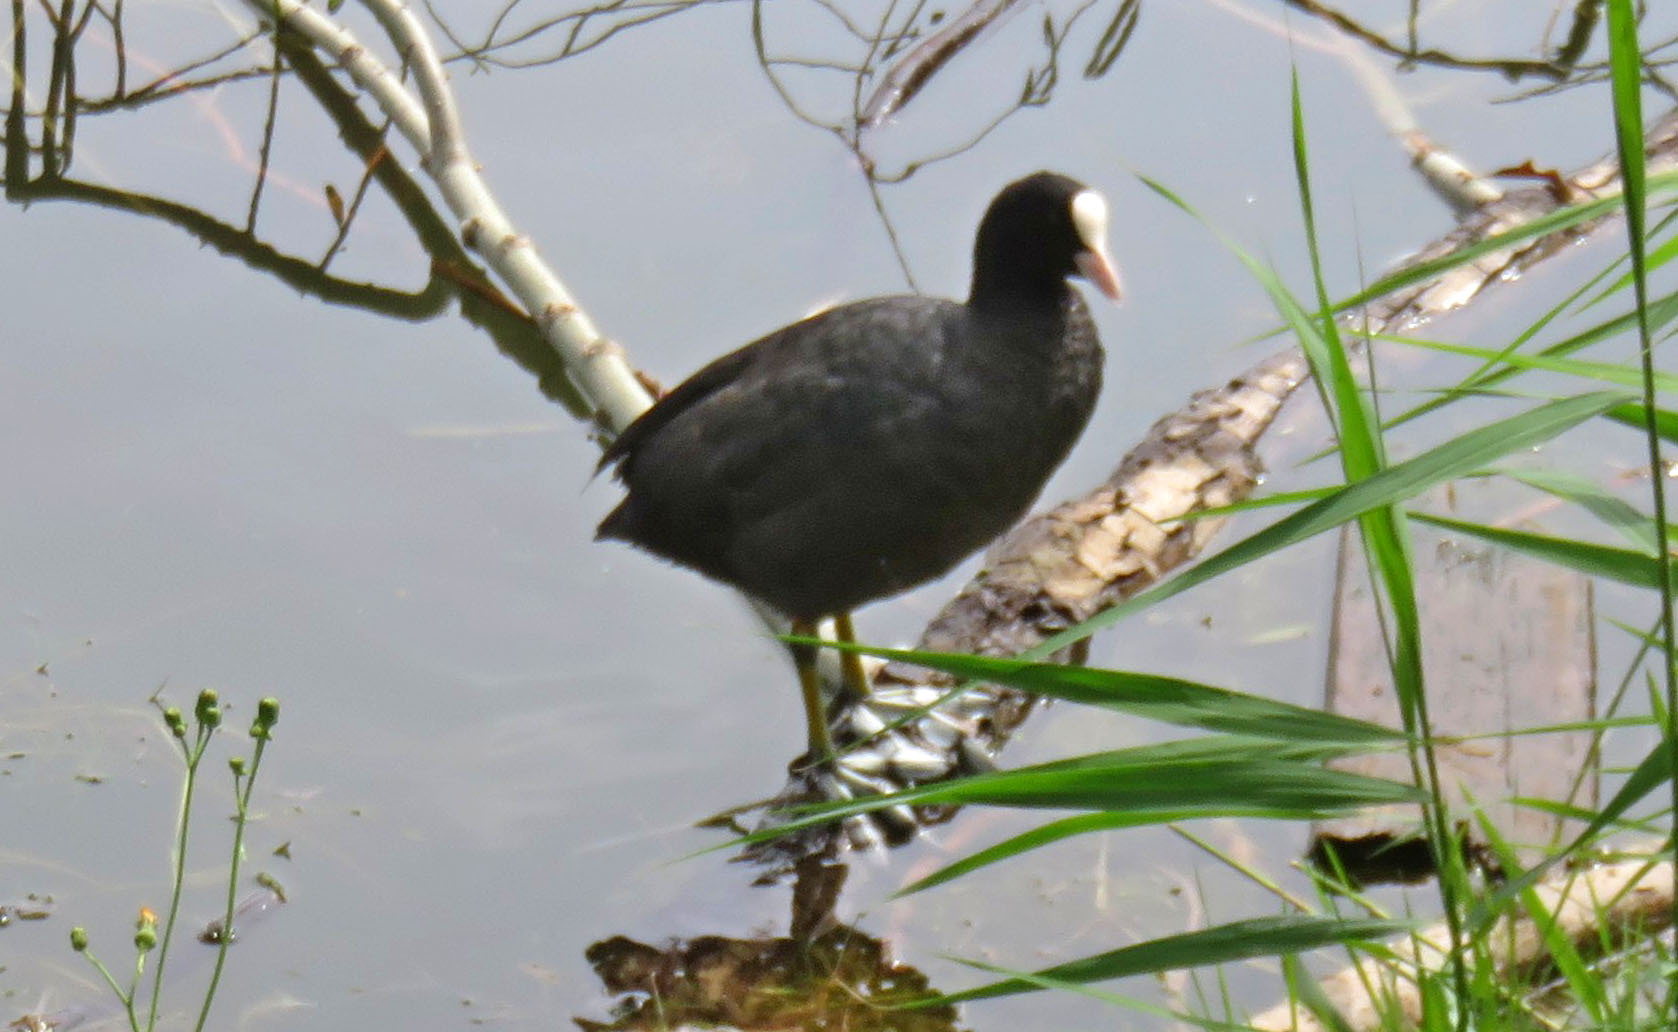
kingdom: Animalia
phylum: Chordata
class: Aves
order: Gruiformes
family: Rallidae
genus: Fulica
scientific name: Fulica atra
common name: Eurasian coot
